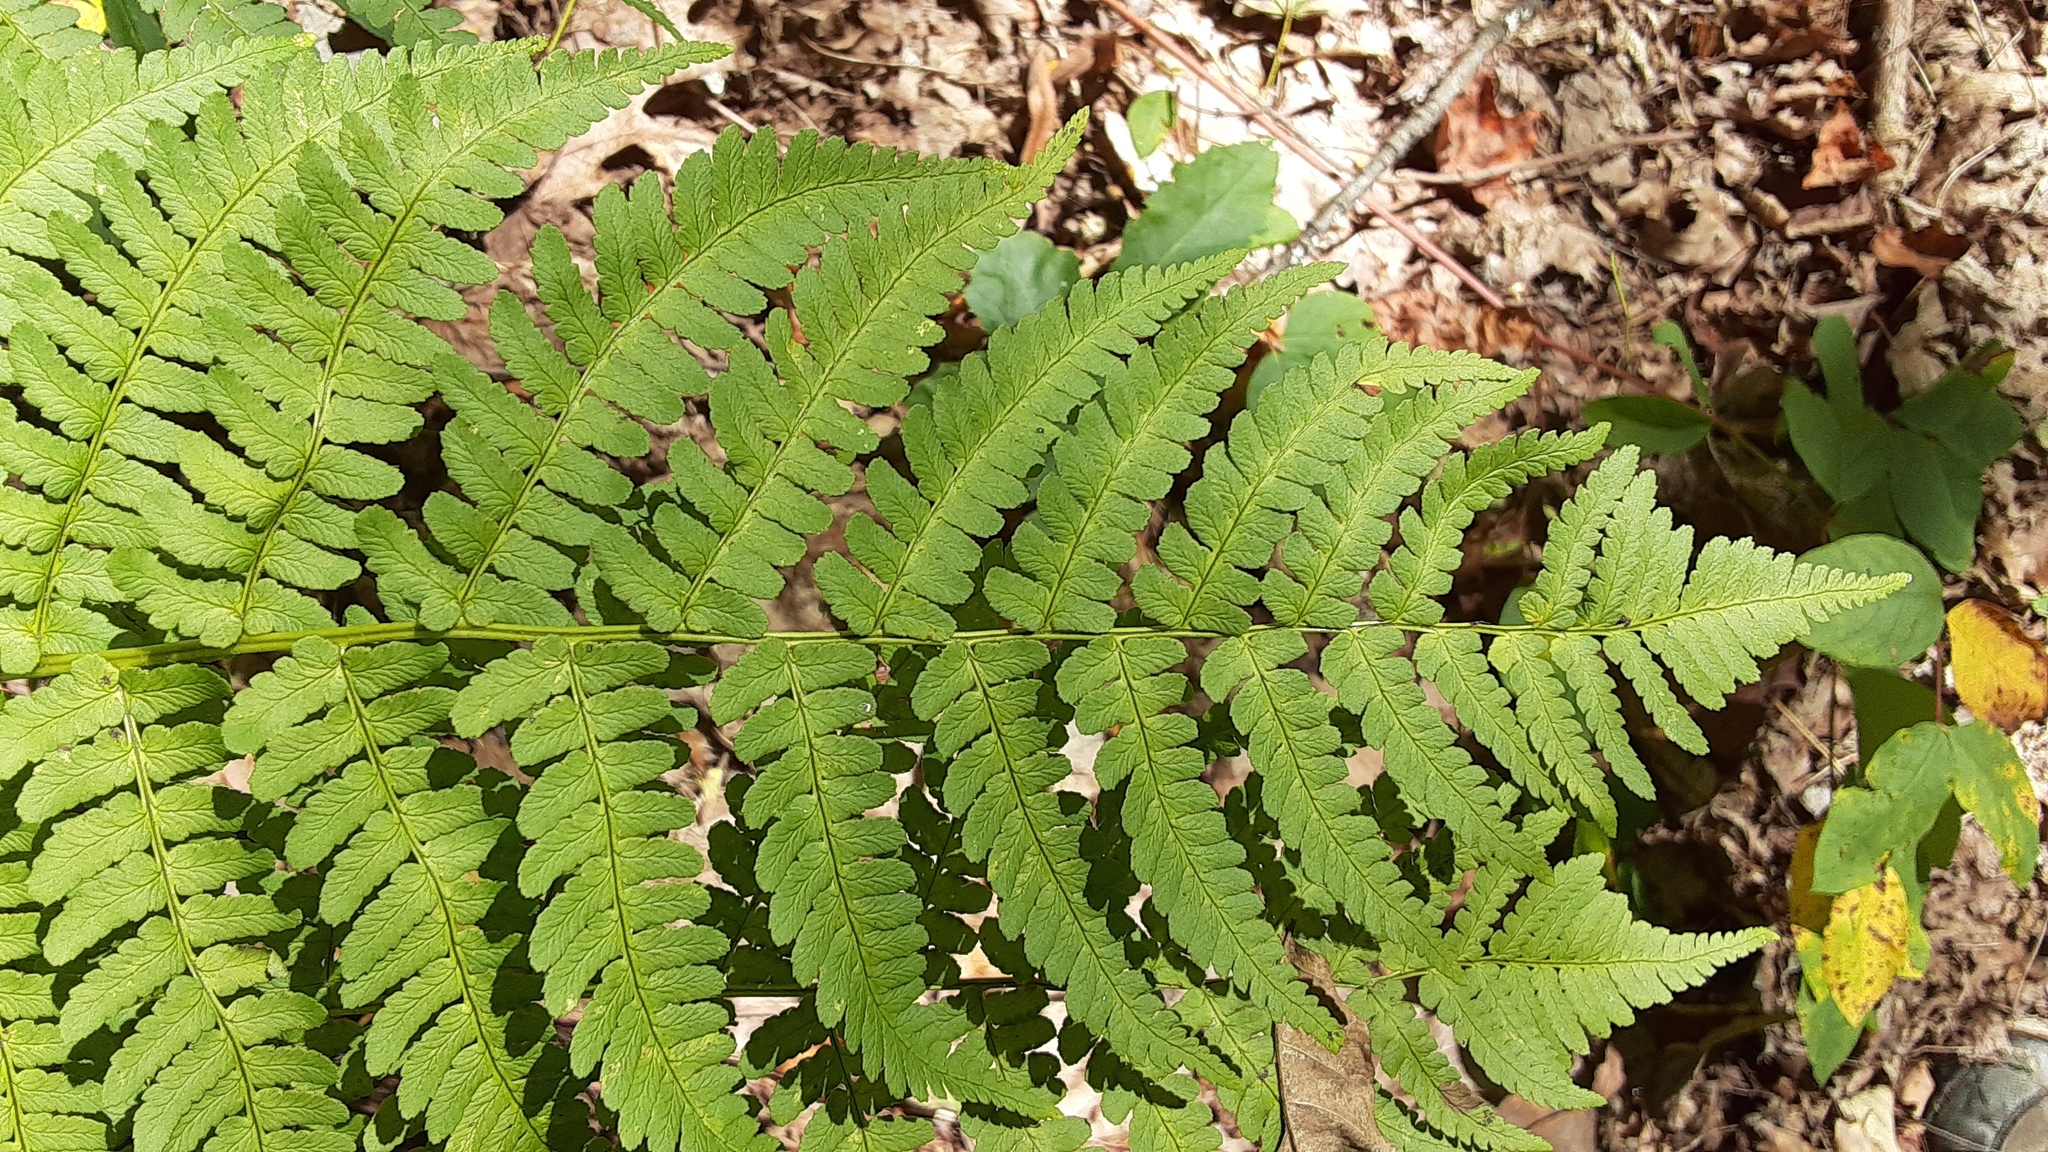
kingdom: Plantae
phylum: Tracheophyta
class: Polypodiopsida
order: Polypodiales
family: Dryopteridaceae
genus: Dryopteris
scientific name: Dryopteris marginalis
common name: Marginal wood fern
